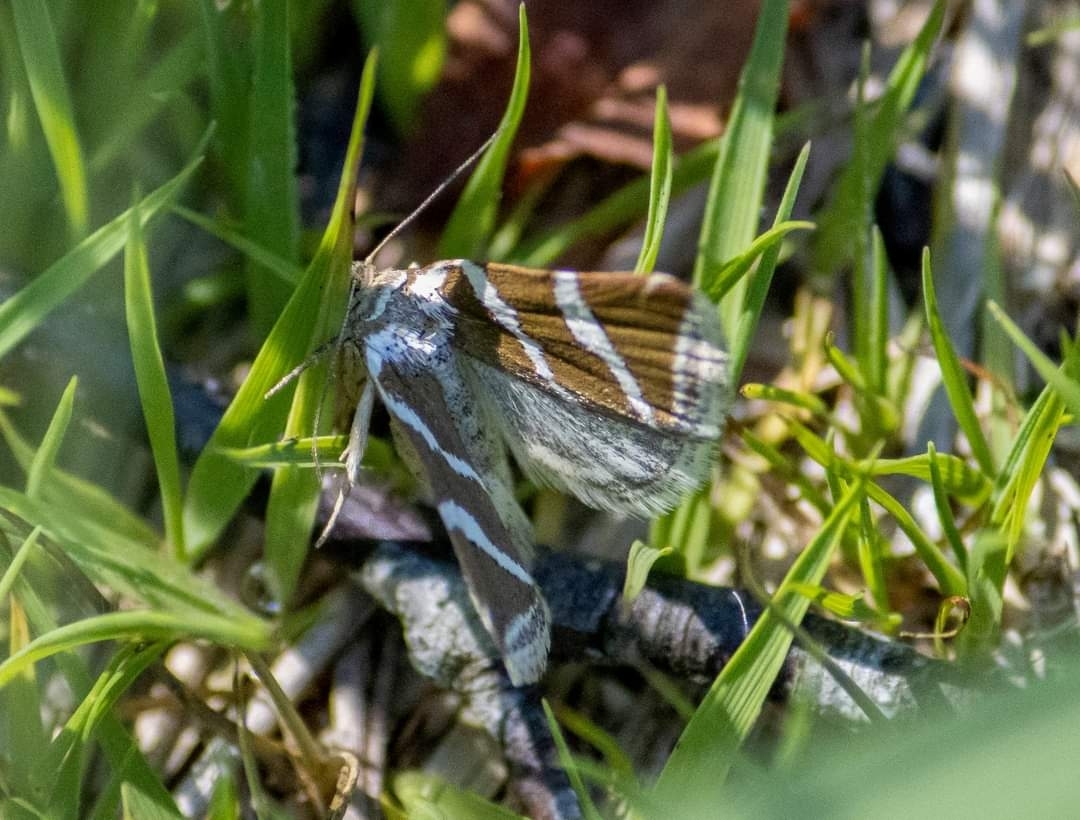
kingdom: Animalia
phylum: Arthropoda
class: Insecta
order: Lepidoptera
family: Noctuidae
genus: Deltote
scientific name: Deltote bankiana
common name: Silver barred
